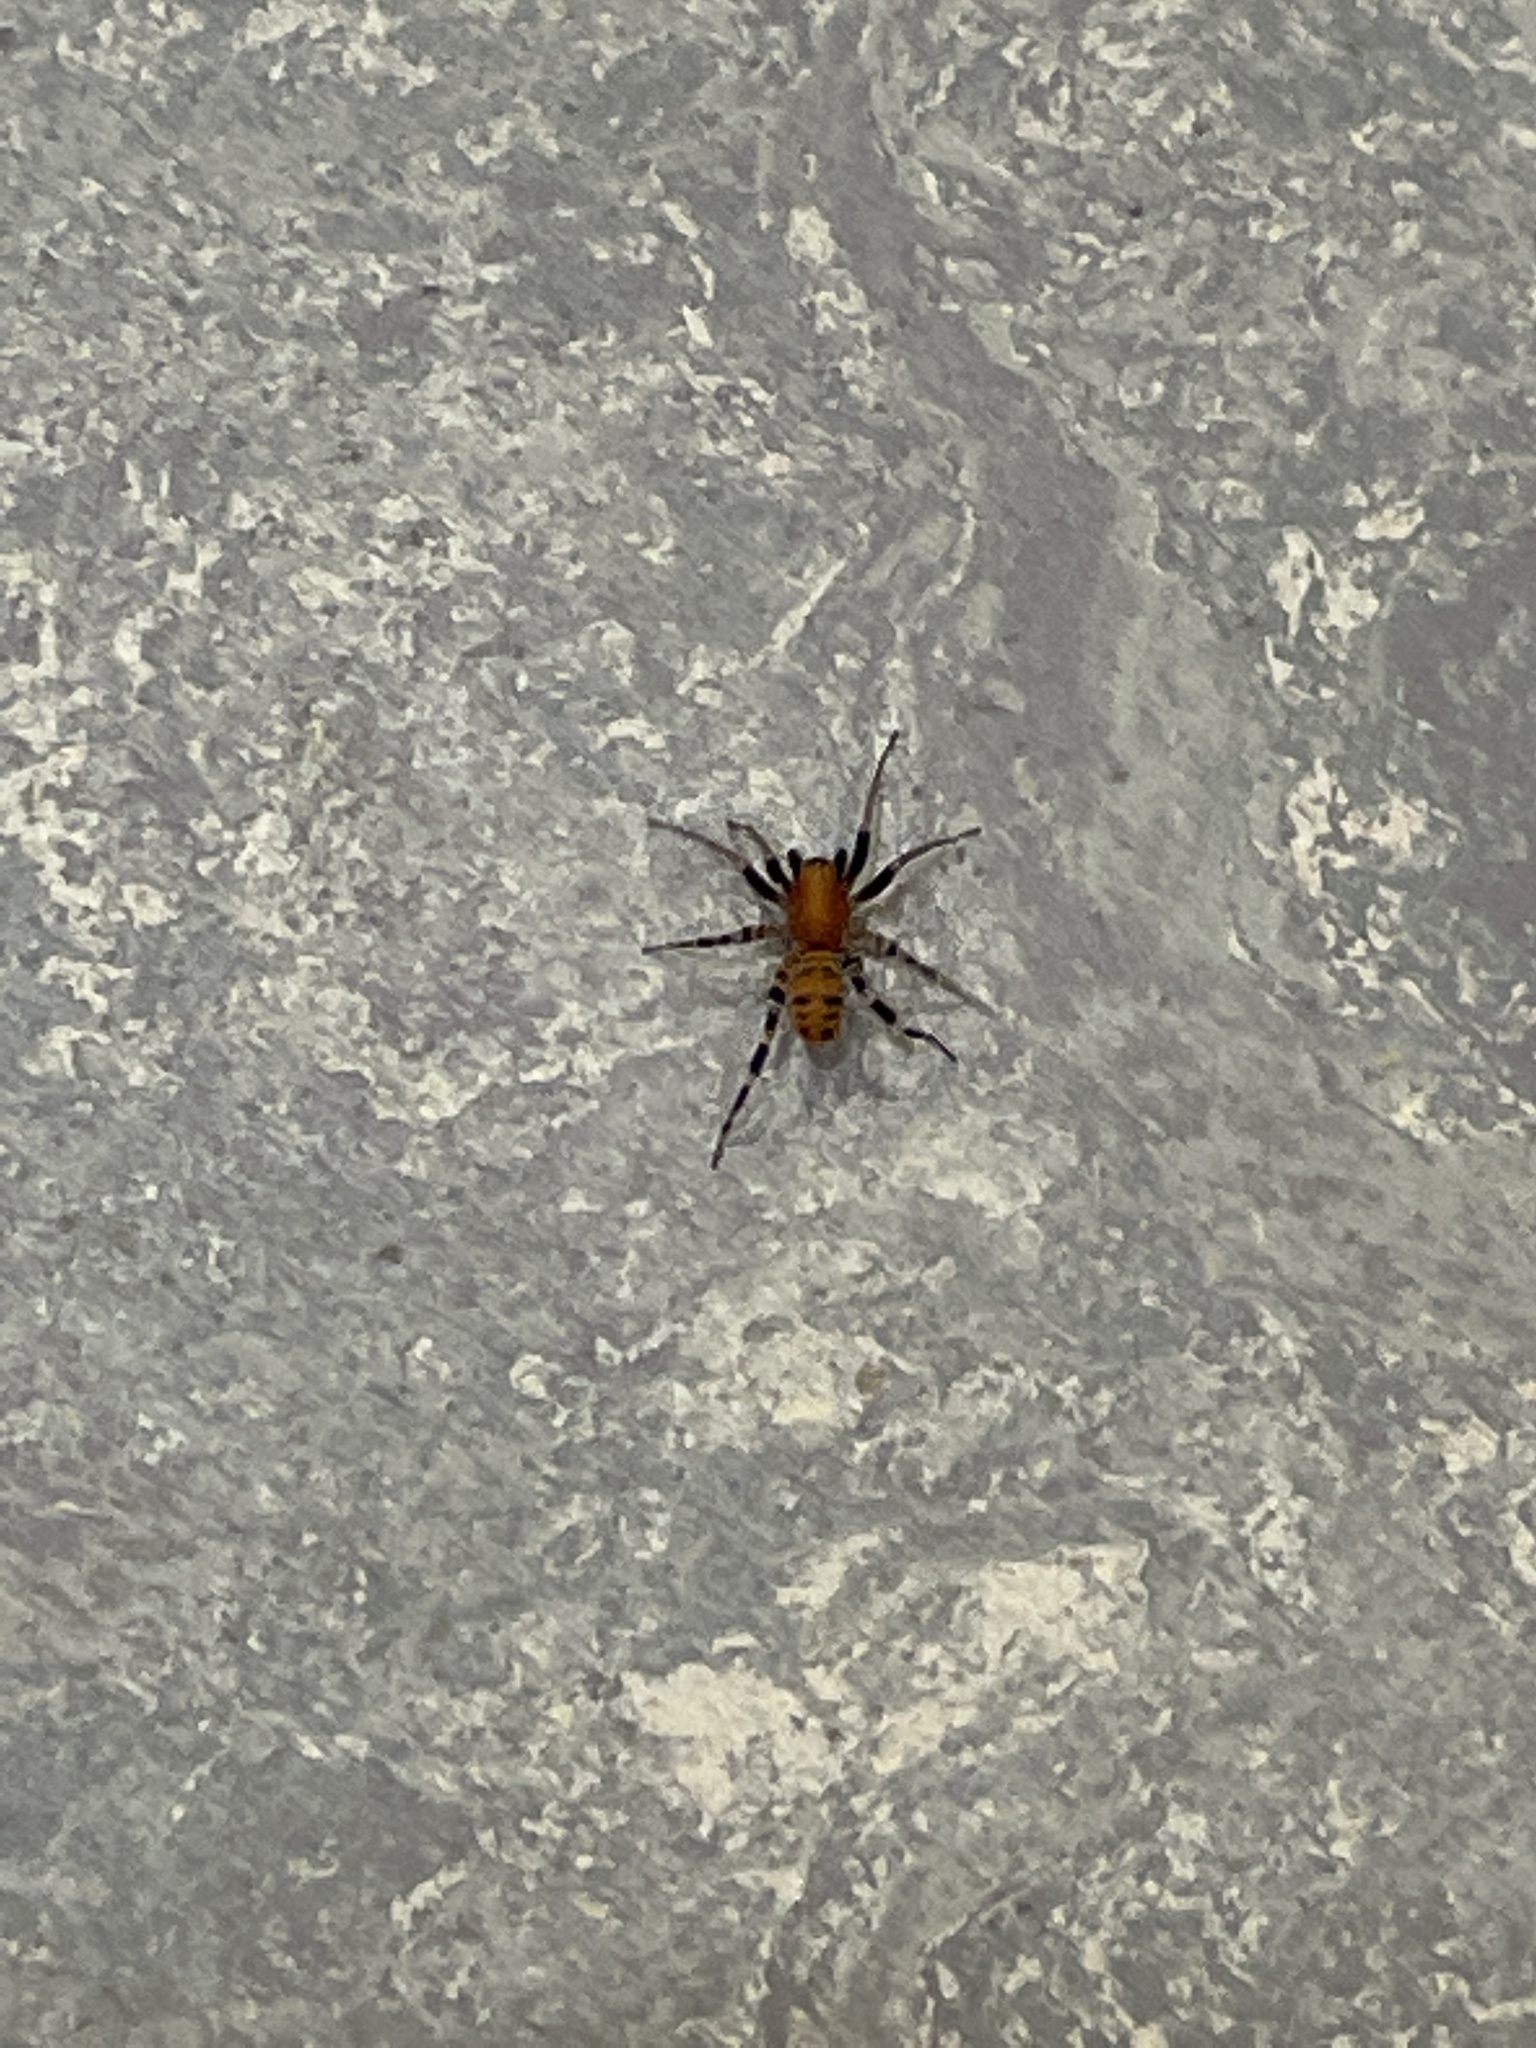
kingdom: Animalia
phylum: Arthropoda
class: Arachnida
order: Araneae
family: Corinnidae
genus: Castianeira
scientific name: Castianeira amoena
